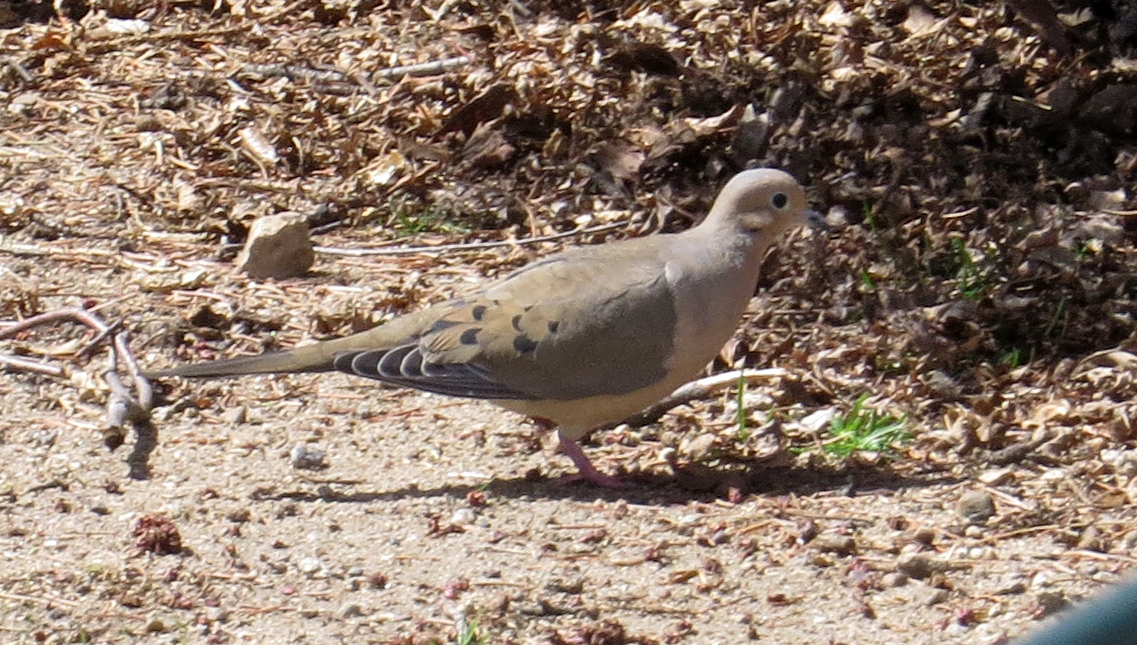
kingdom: Animalia
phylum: Chordata
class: Aves
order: Columbiformes
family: Columbidae
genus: Zenaida
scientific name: Zenaida macroura
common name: Mourning dove
